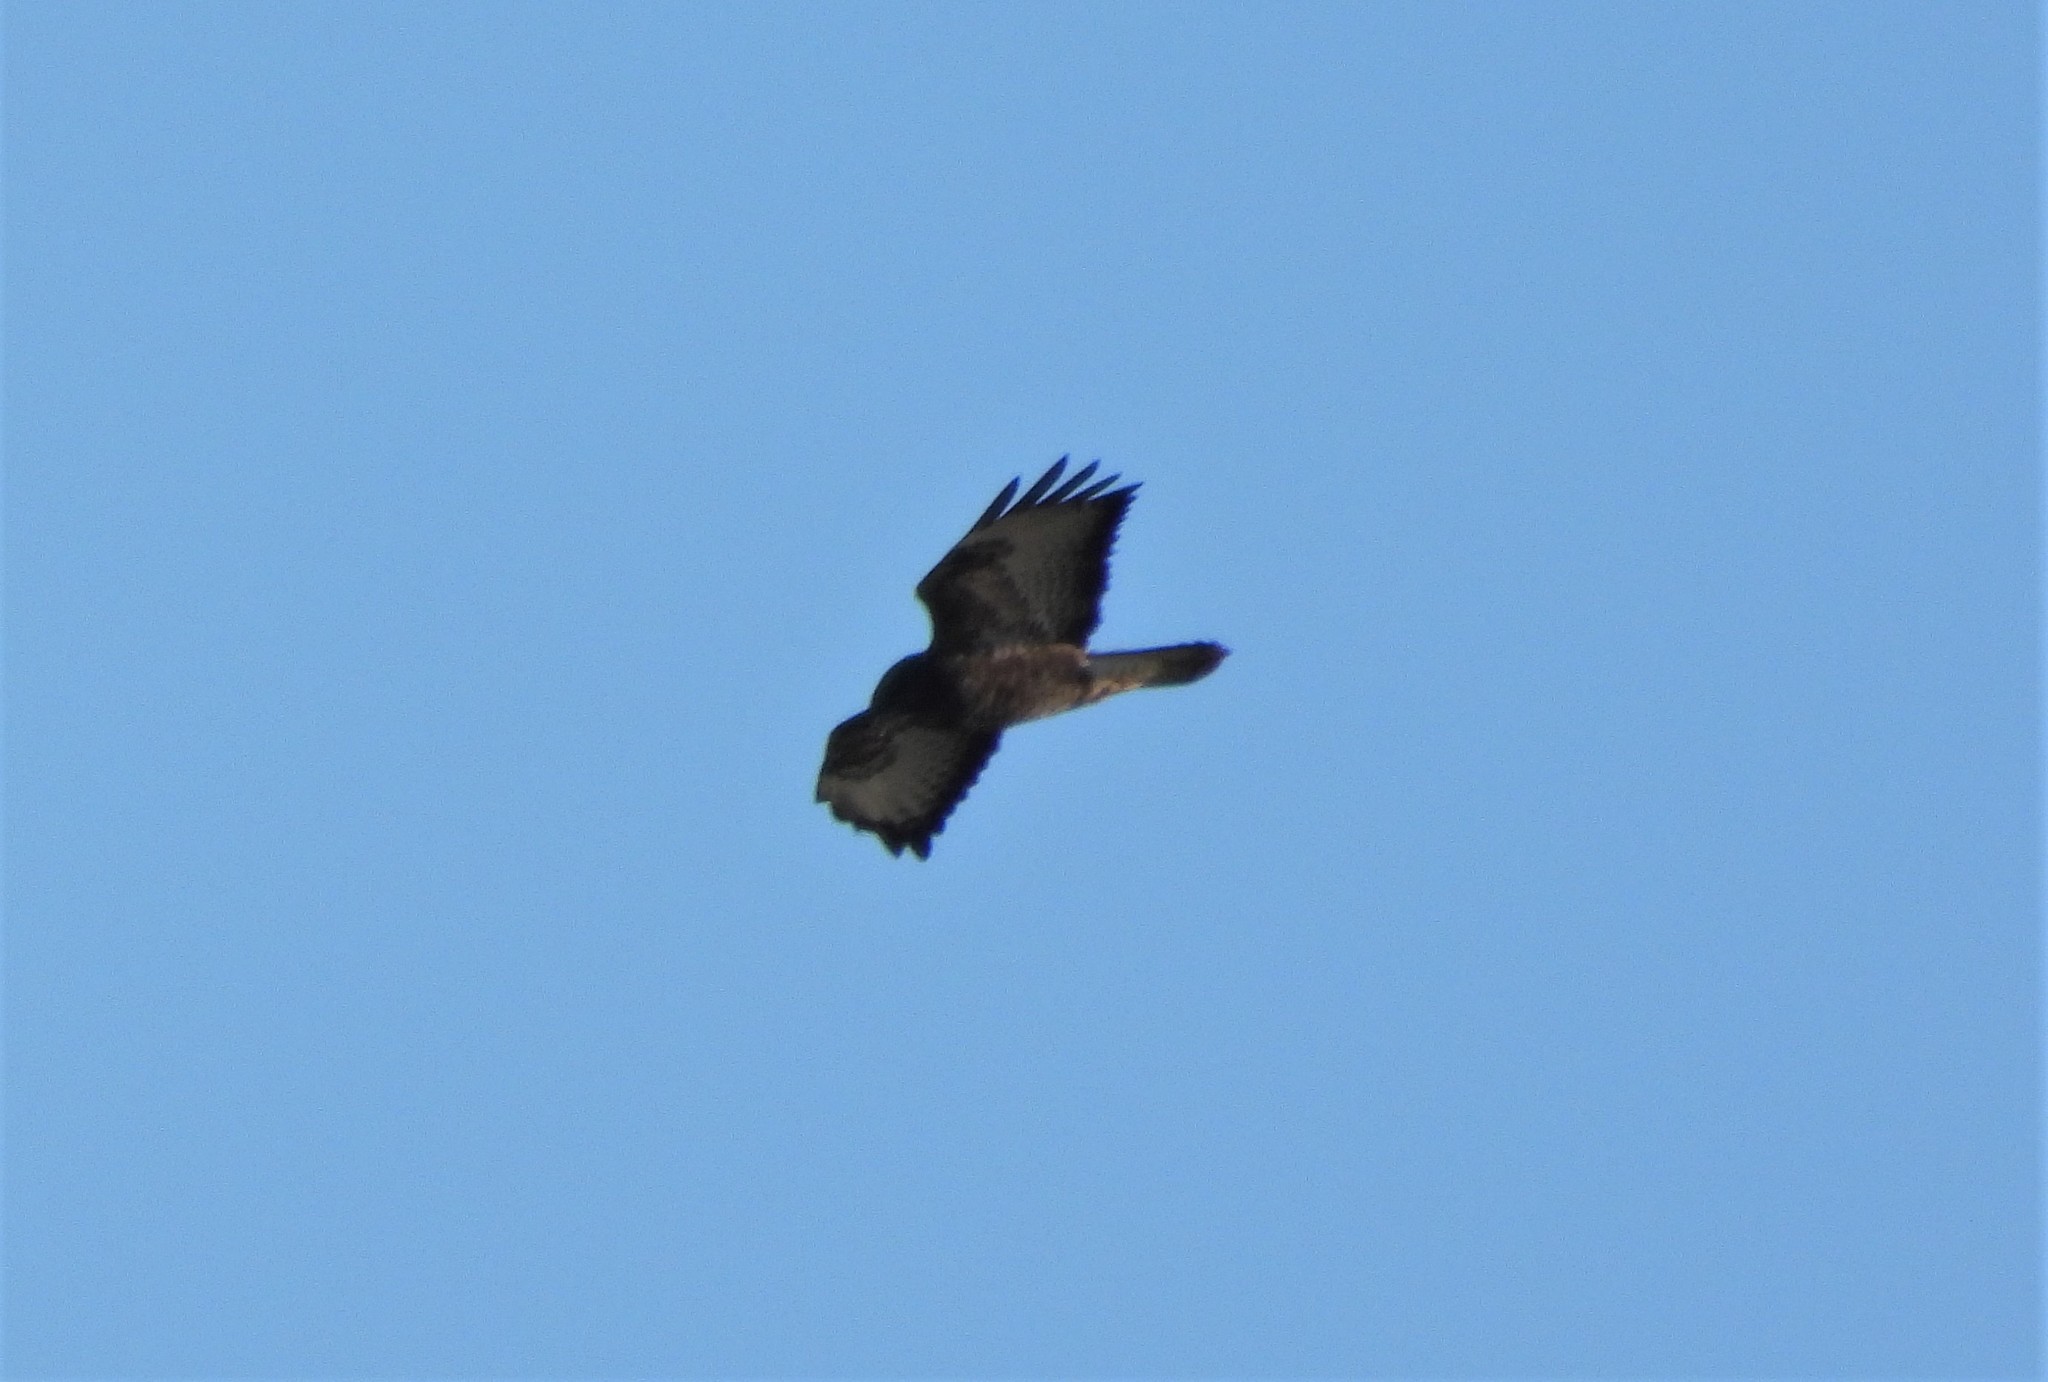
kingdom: Animalia
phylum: Chordata
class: Aves
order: Accipitriformes
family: Accipitridae
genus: Buteo
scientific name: Buteo buteo
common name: Common buzzard
